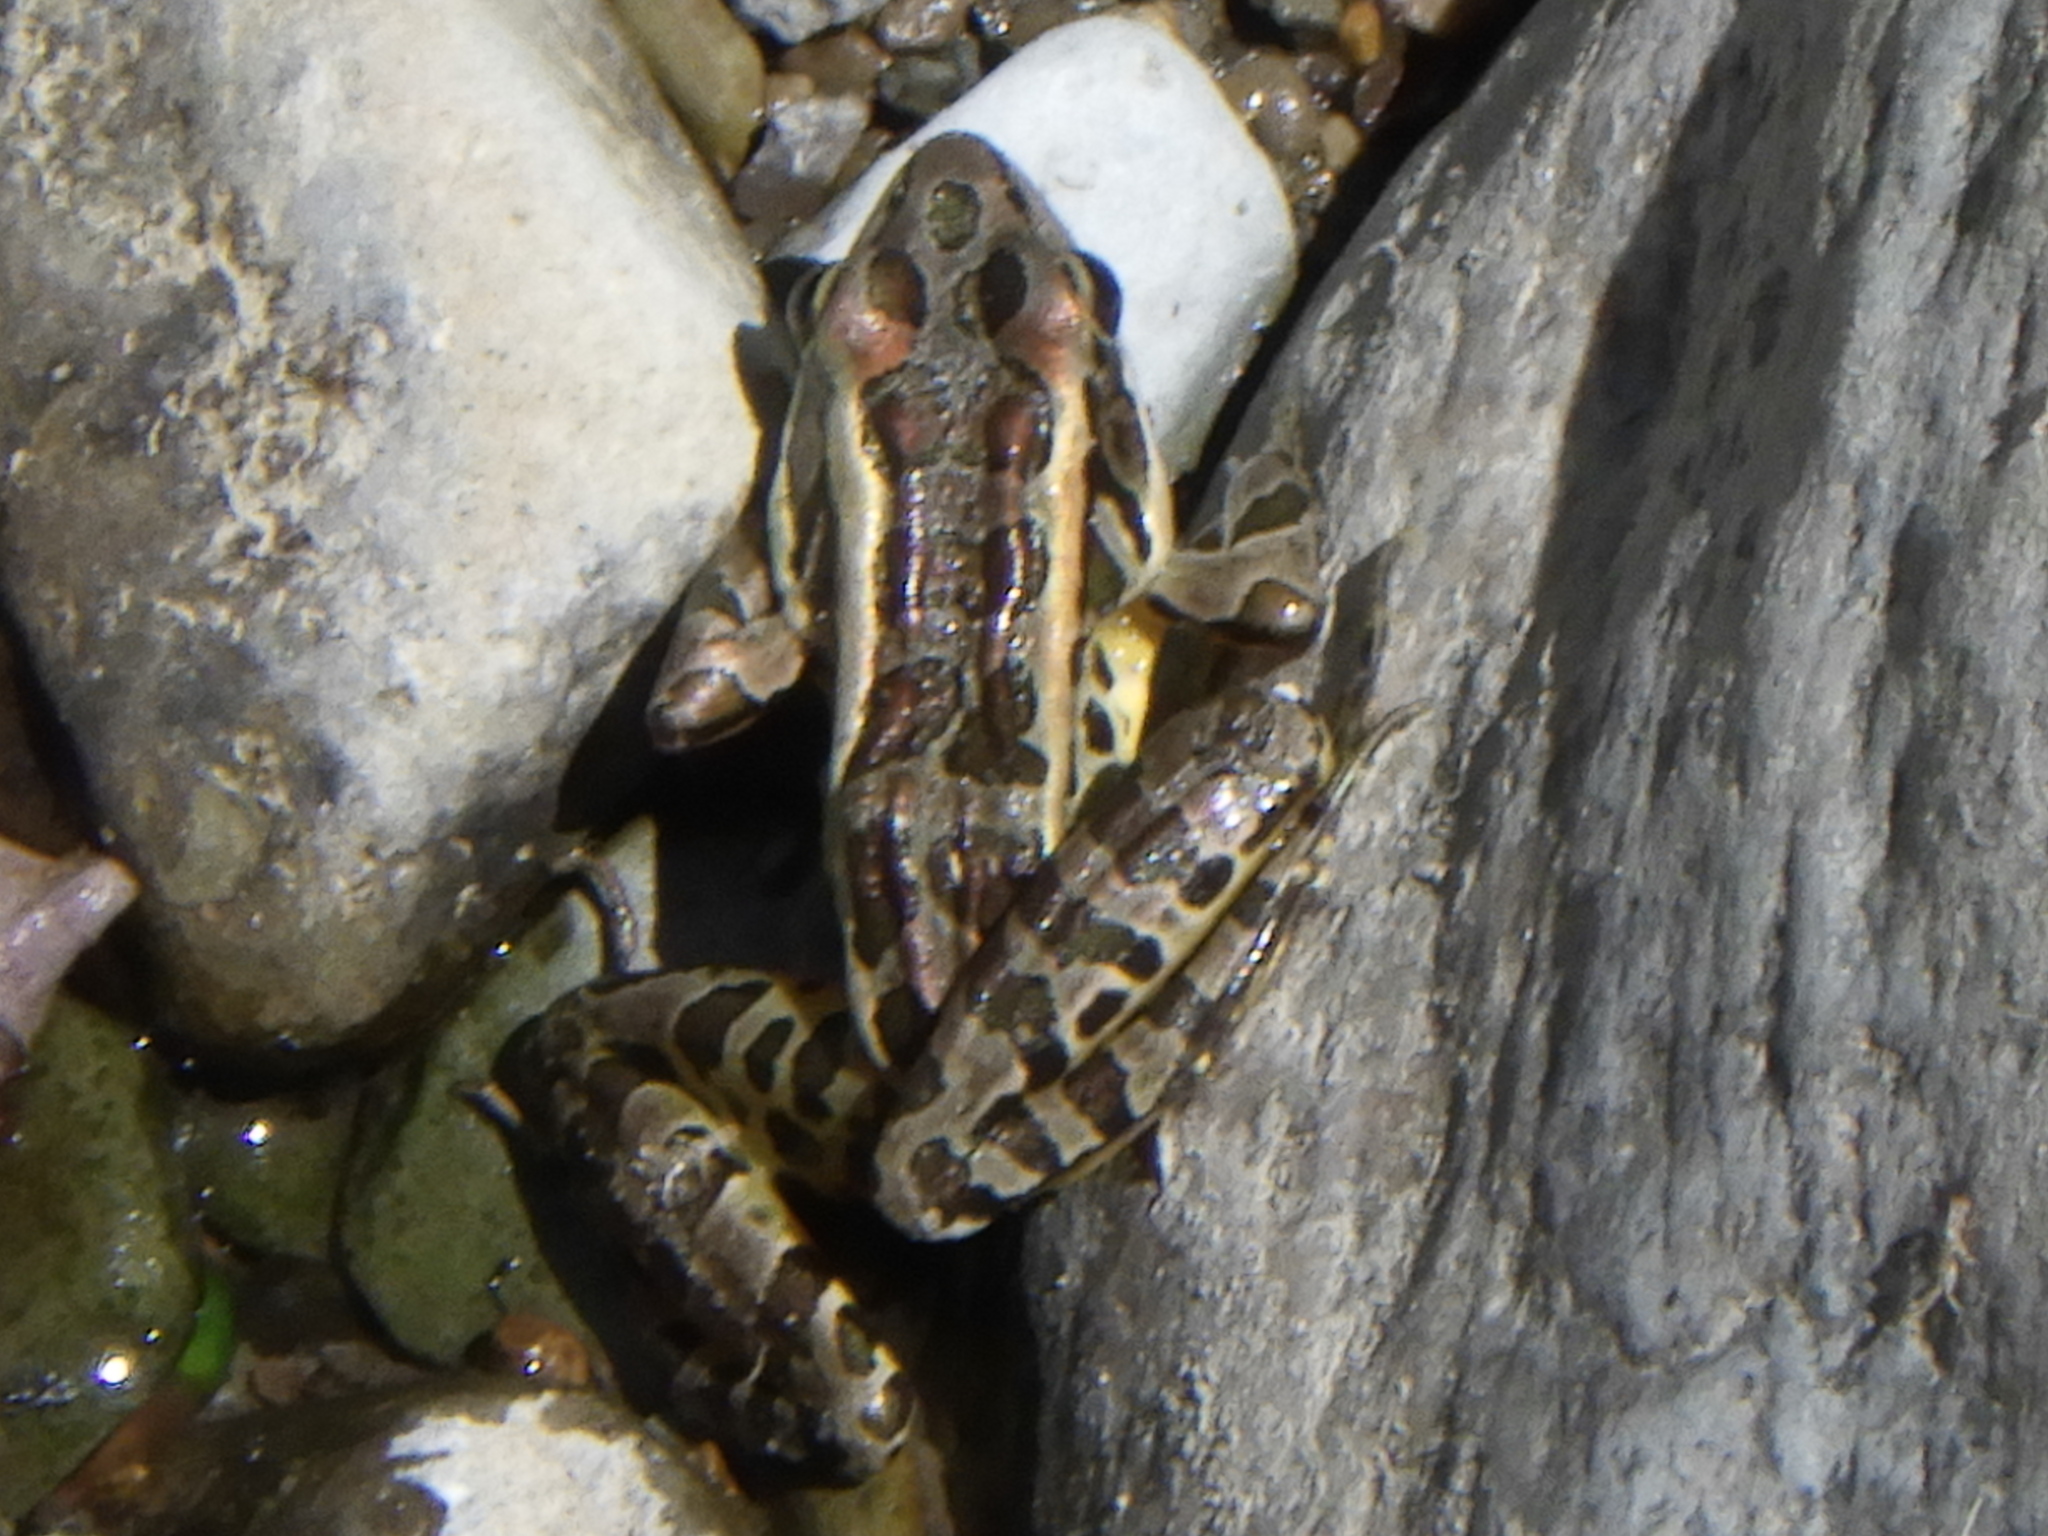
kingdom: Animalia
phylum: Chordata
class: Amphibia
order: Anura
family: Ranidae
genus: Lithobates
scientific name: Lithobates palustris
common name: Pickerel frog
